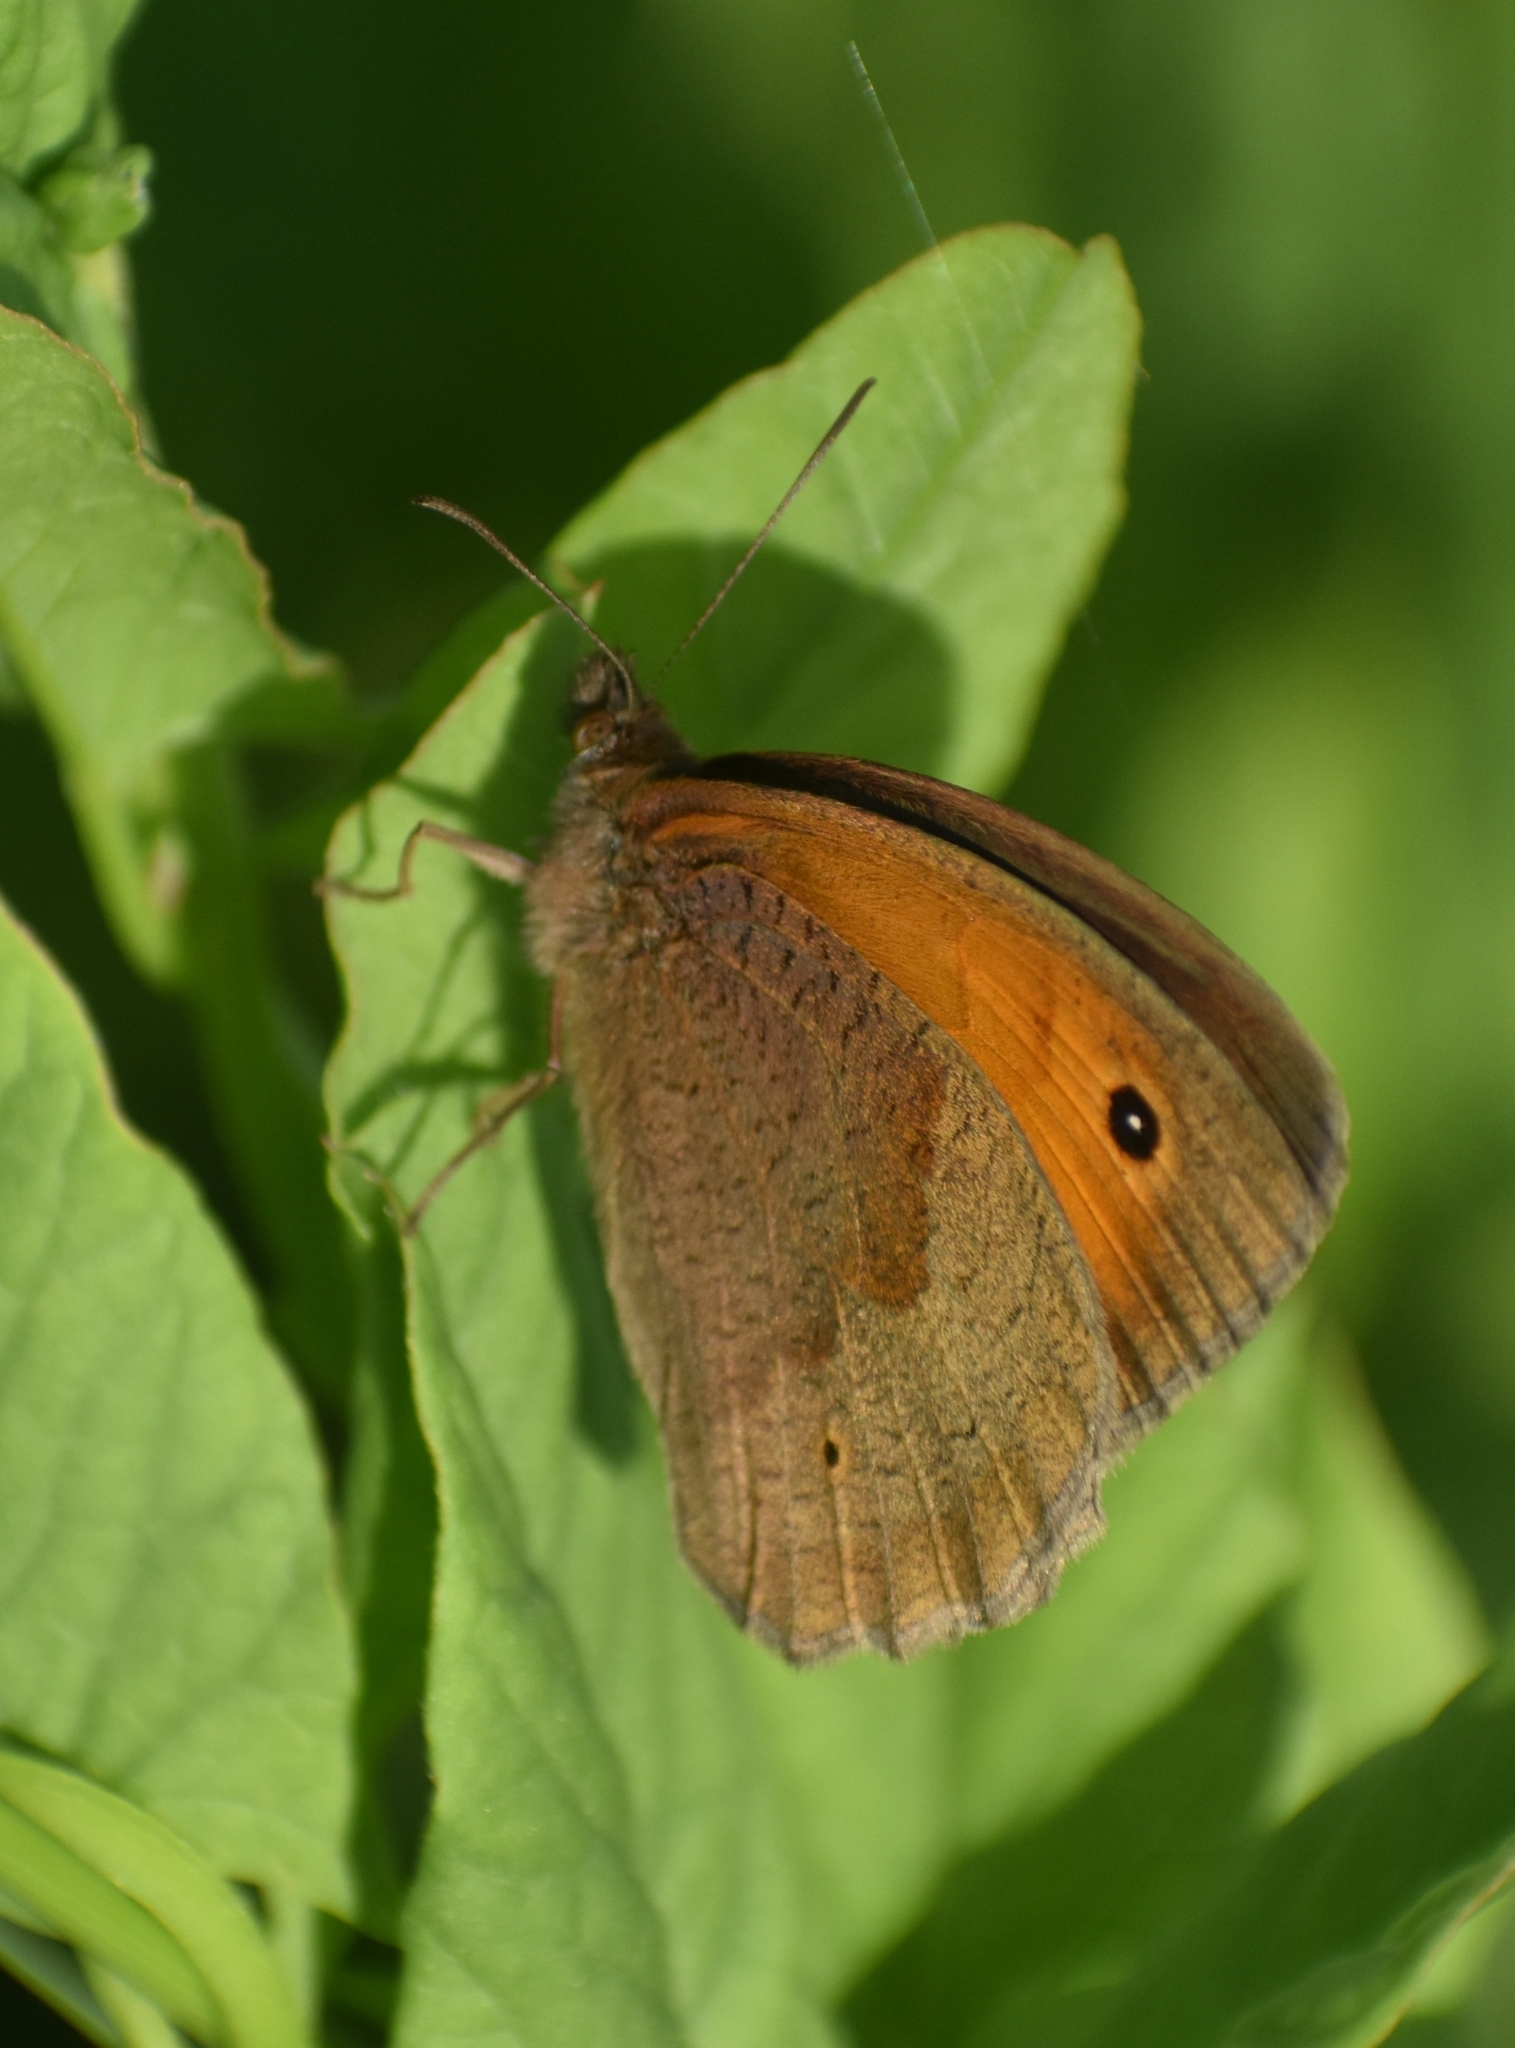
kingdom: Animalia
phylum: Arthropoda
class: Insecta
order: Lepidoptera
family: Nymphalidae
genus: Maniola
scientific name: Maniola jurtina
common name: Meadow brown
